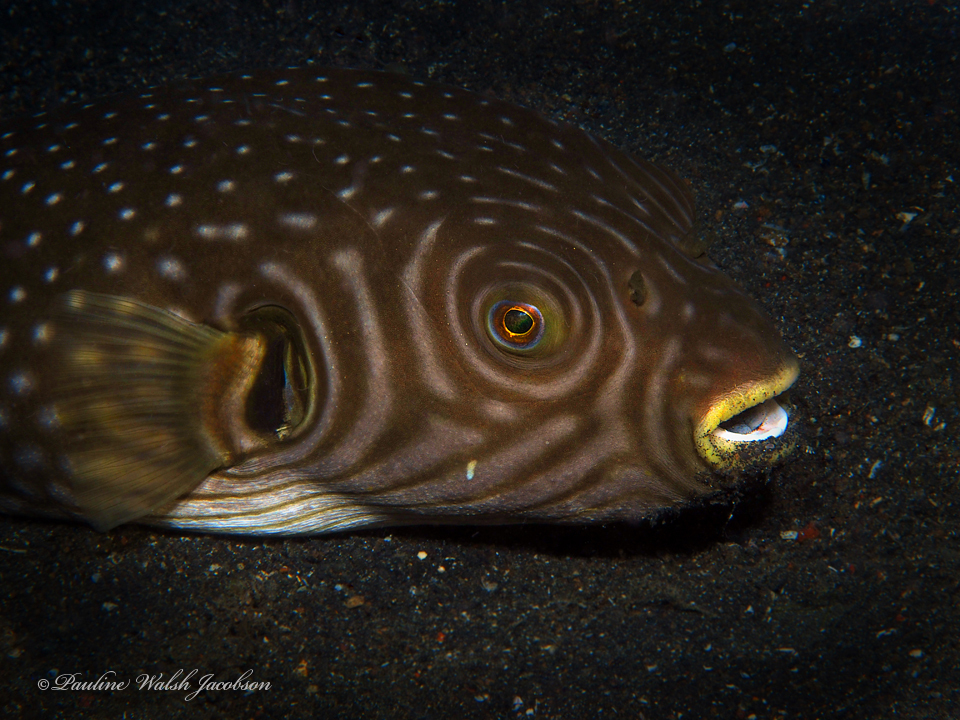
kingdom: Animalia
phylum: Chordata
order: Tetraodontiformes
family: Tetraodontidae
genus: Arothron
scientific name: Arothron reticularis
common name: Reticulated blow fish
